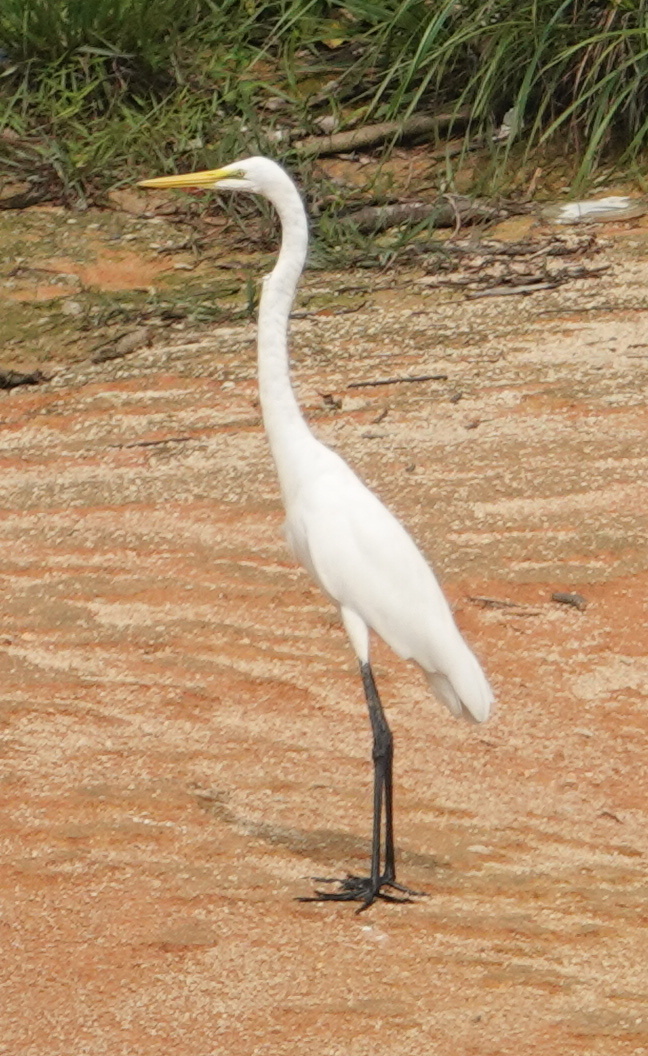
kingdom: Animalia
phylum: Chordata
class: Aves
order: Pelecaniformes
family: Ardeidae
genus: Ardea
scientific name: Ardea alba
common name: Great egret
